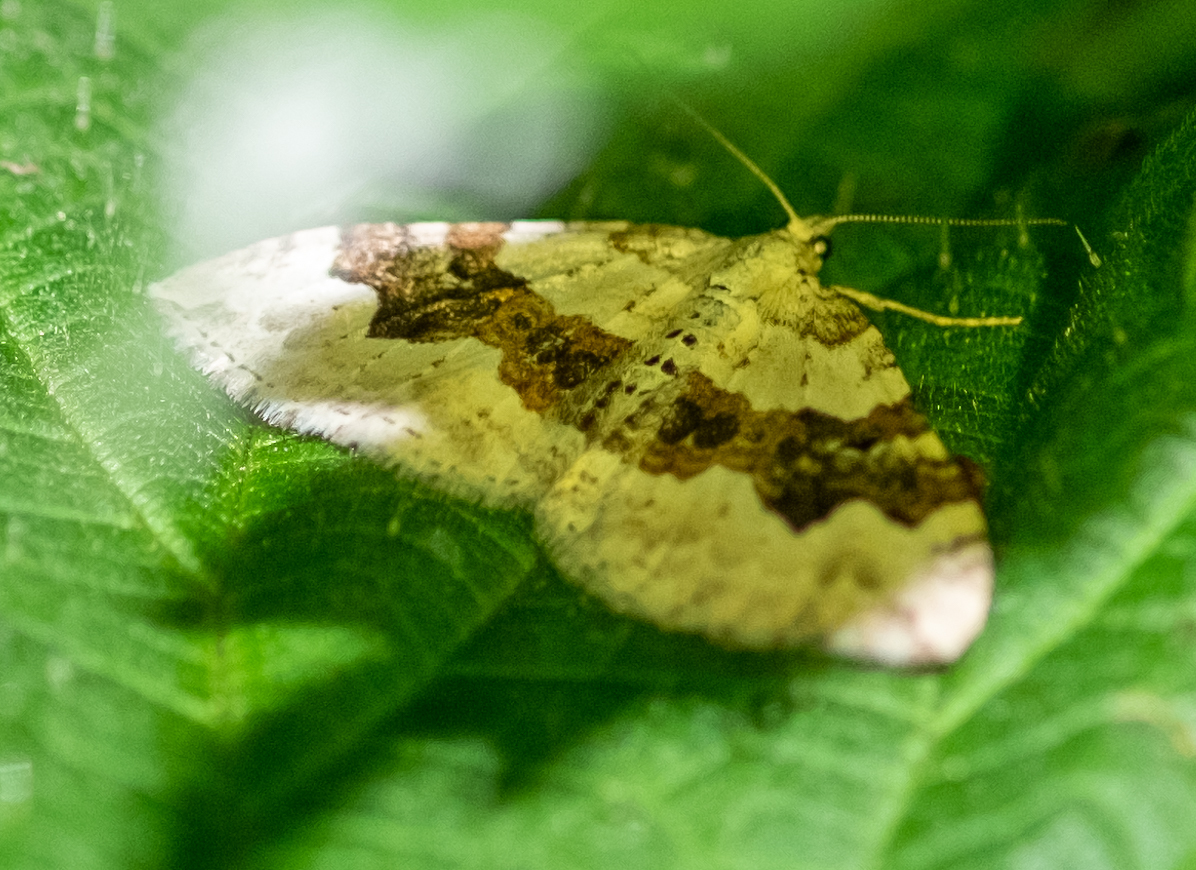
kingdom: Animalia
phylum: Arthropoda
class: Insecta
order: Lepidoptera
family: Geometridae
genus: Xanthorhoe
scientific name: Xanthorhoe montanata
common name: Silver-ground carpet
